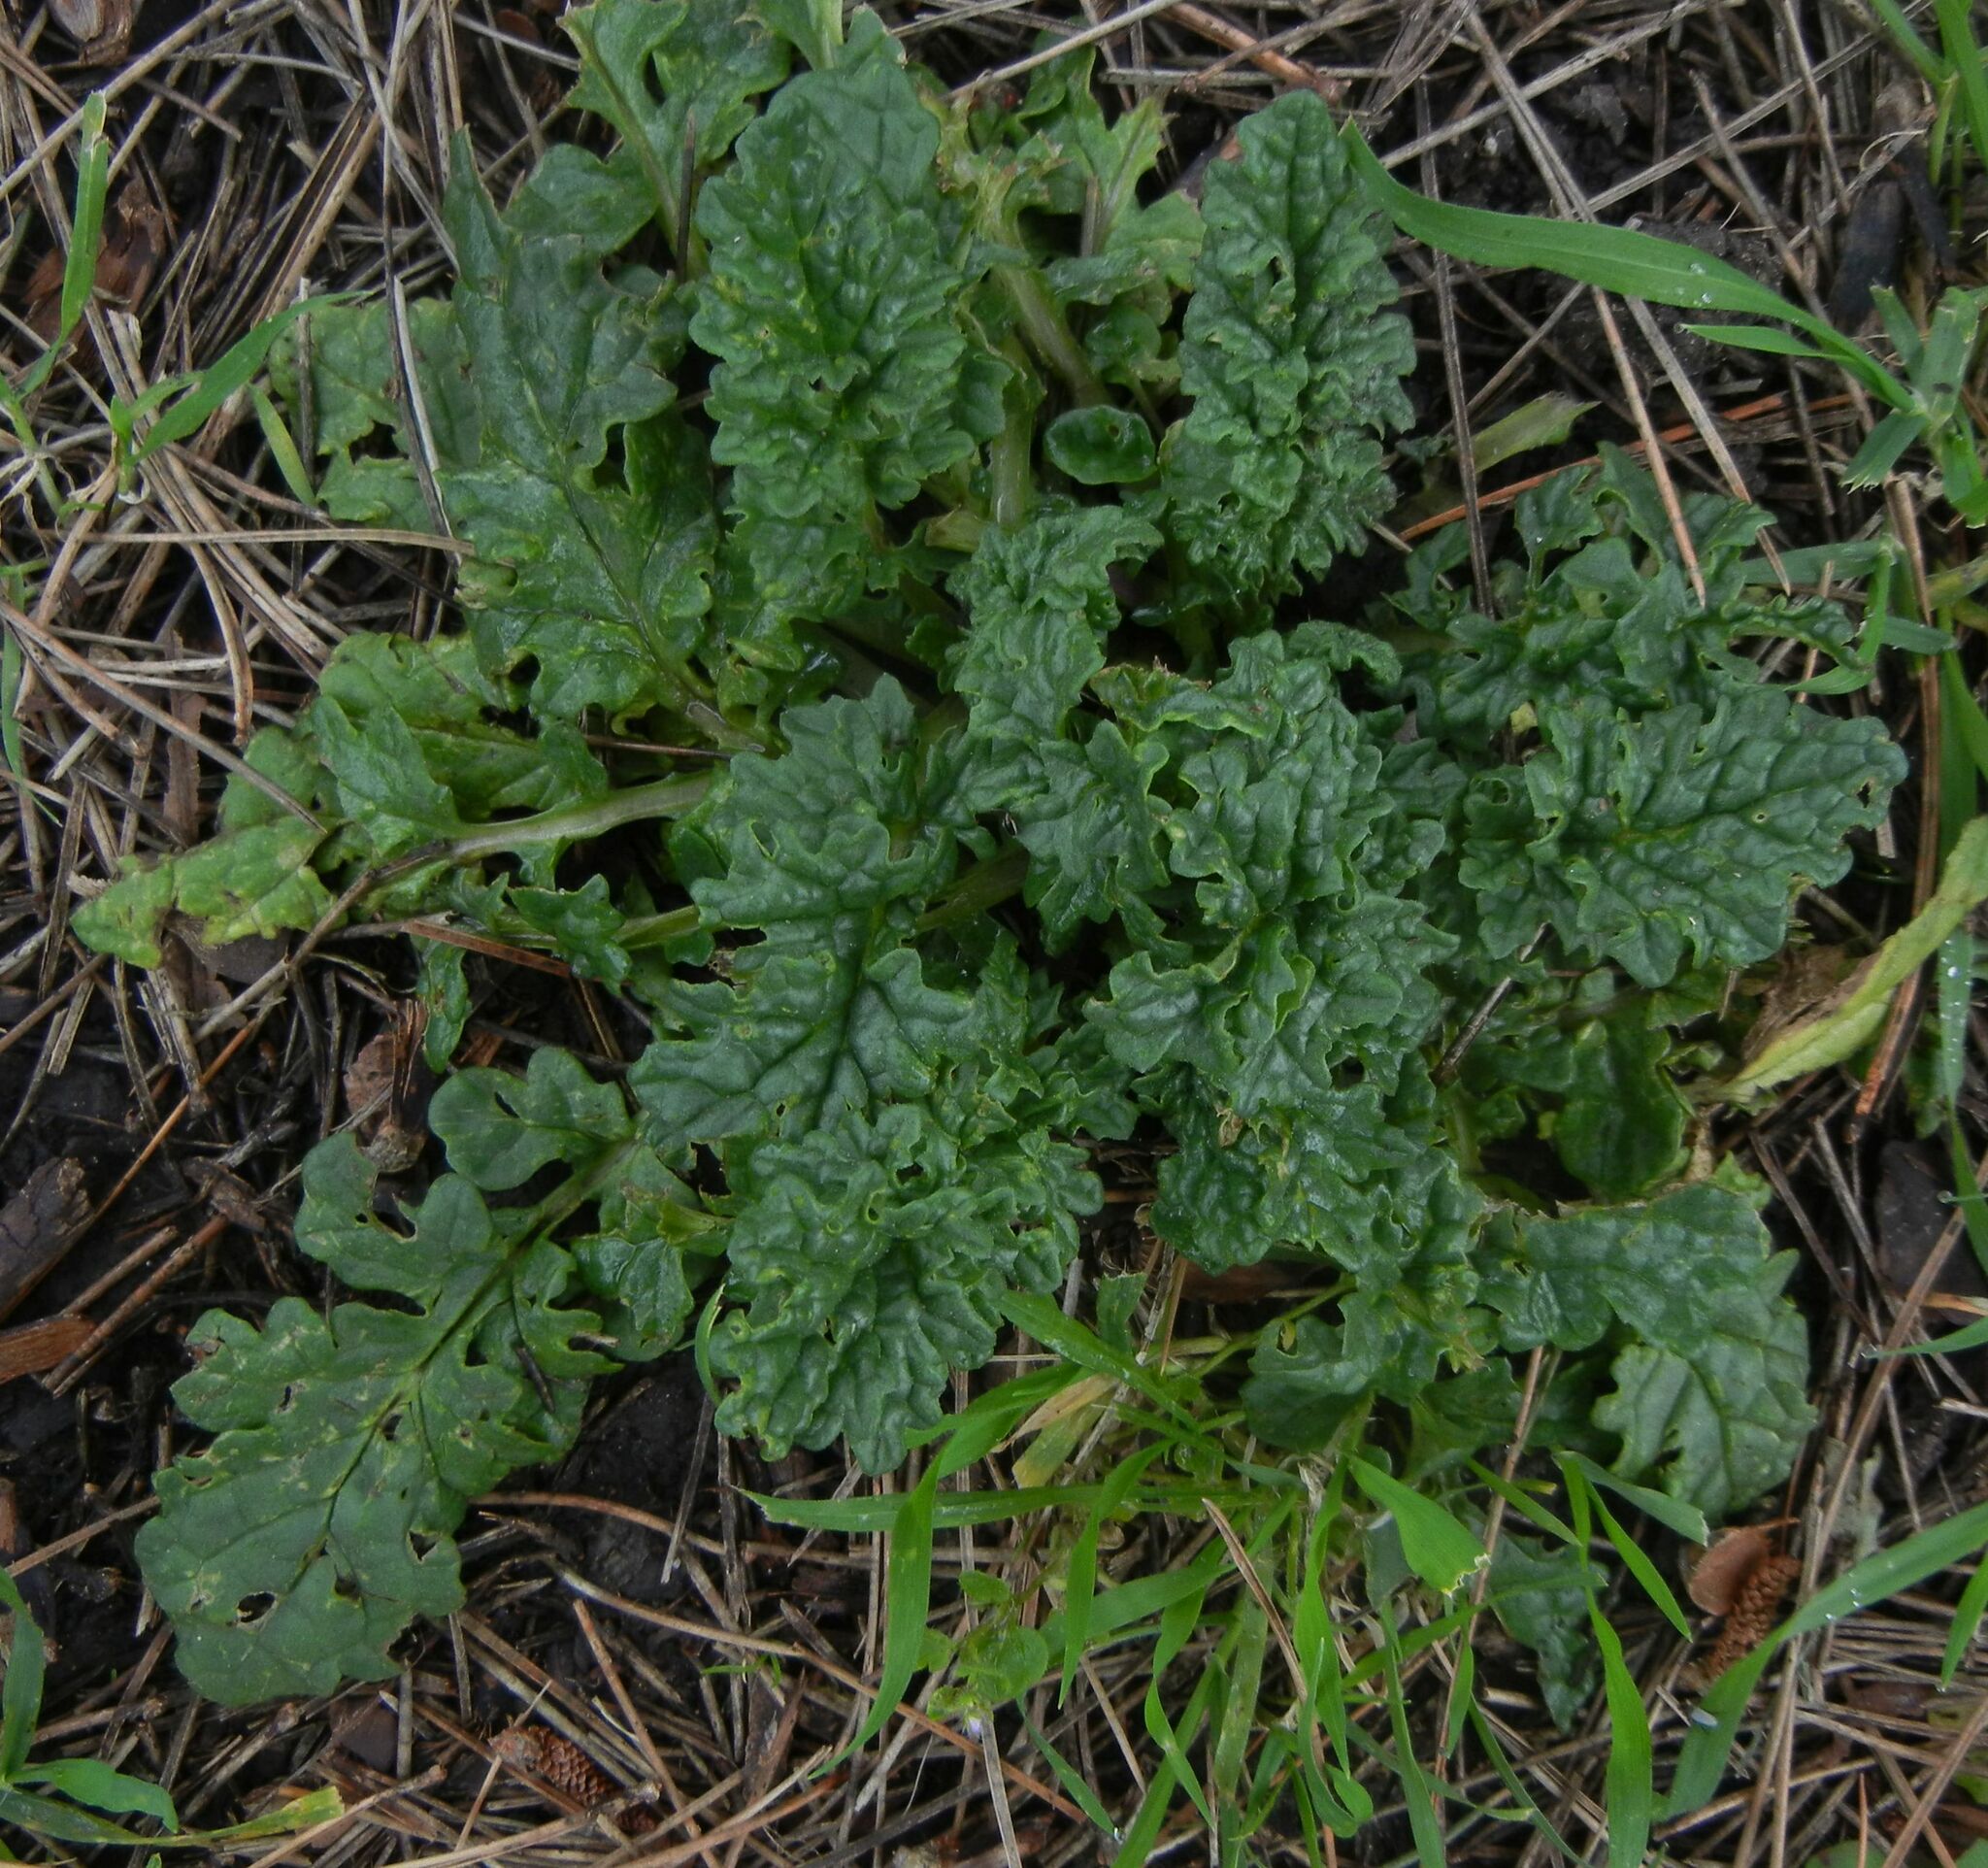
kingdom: Plantae
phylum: Tracheophyta
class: Magnoliopsida
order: Asterales
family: Asteraceae
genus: Jacobaea
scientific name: Jacobaea vulgaris
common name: Stinking willie
